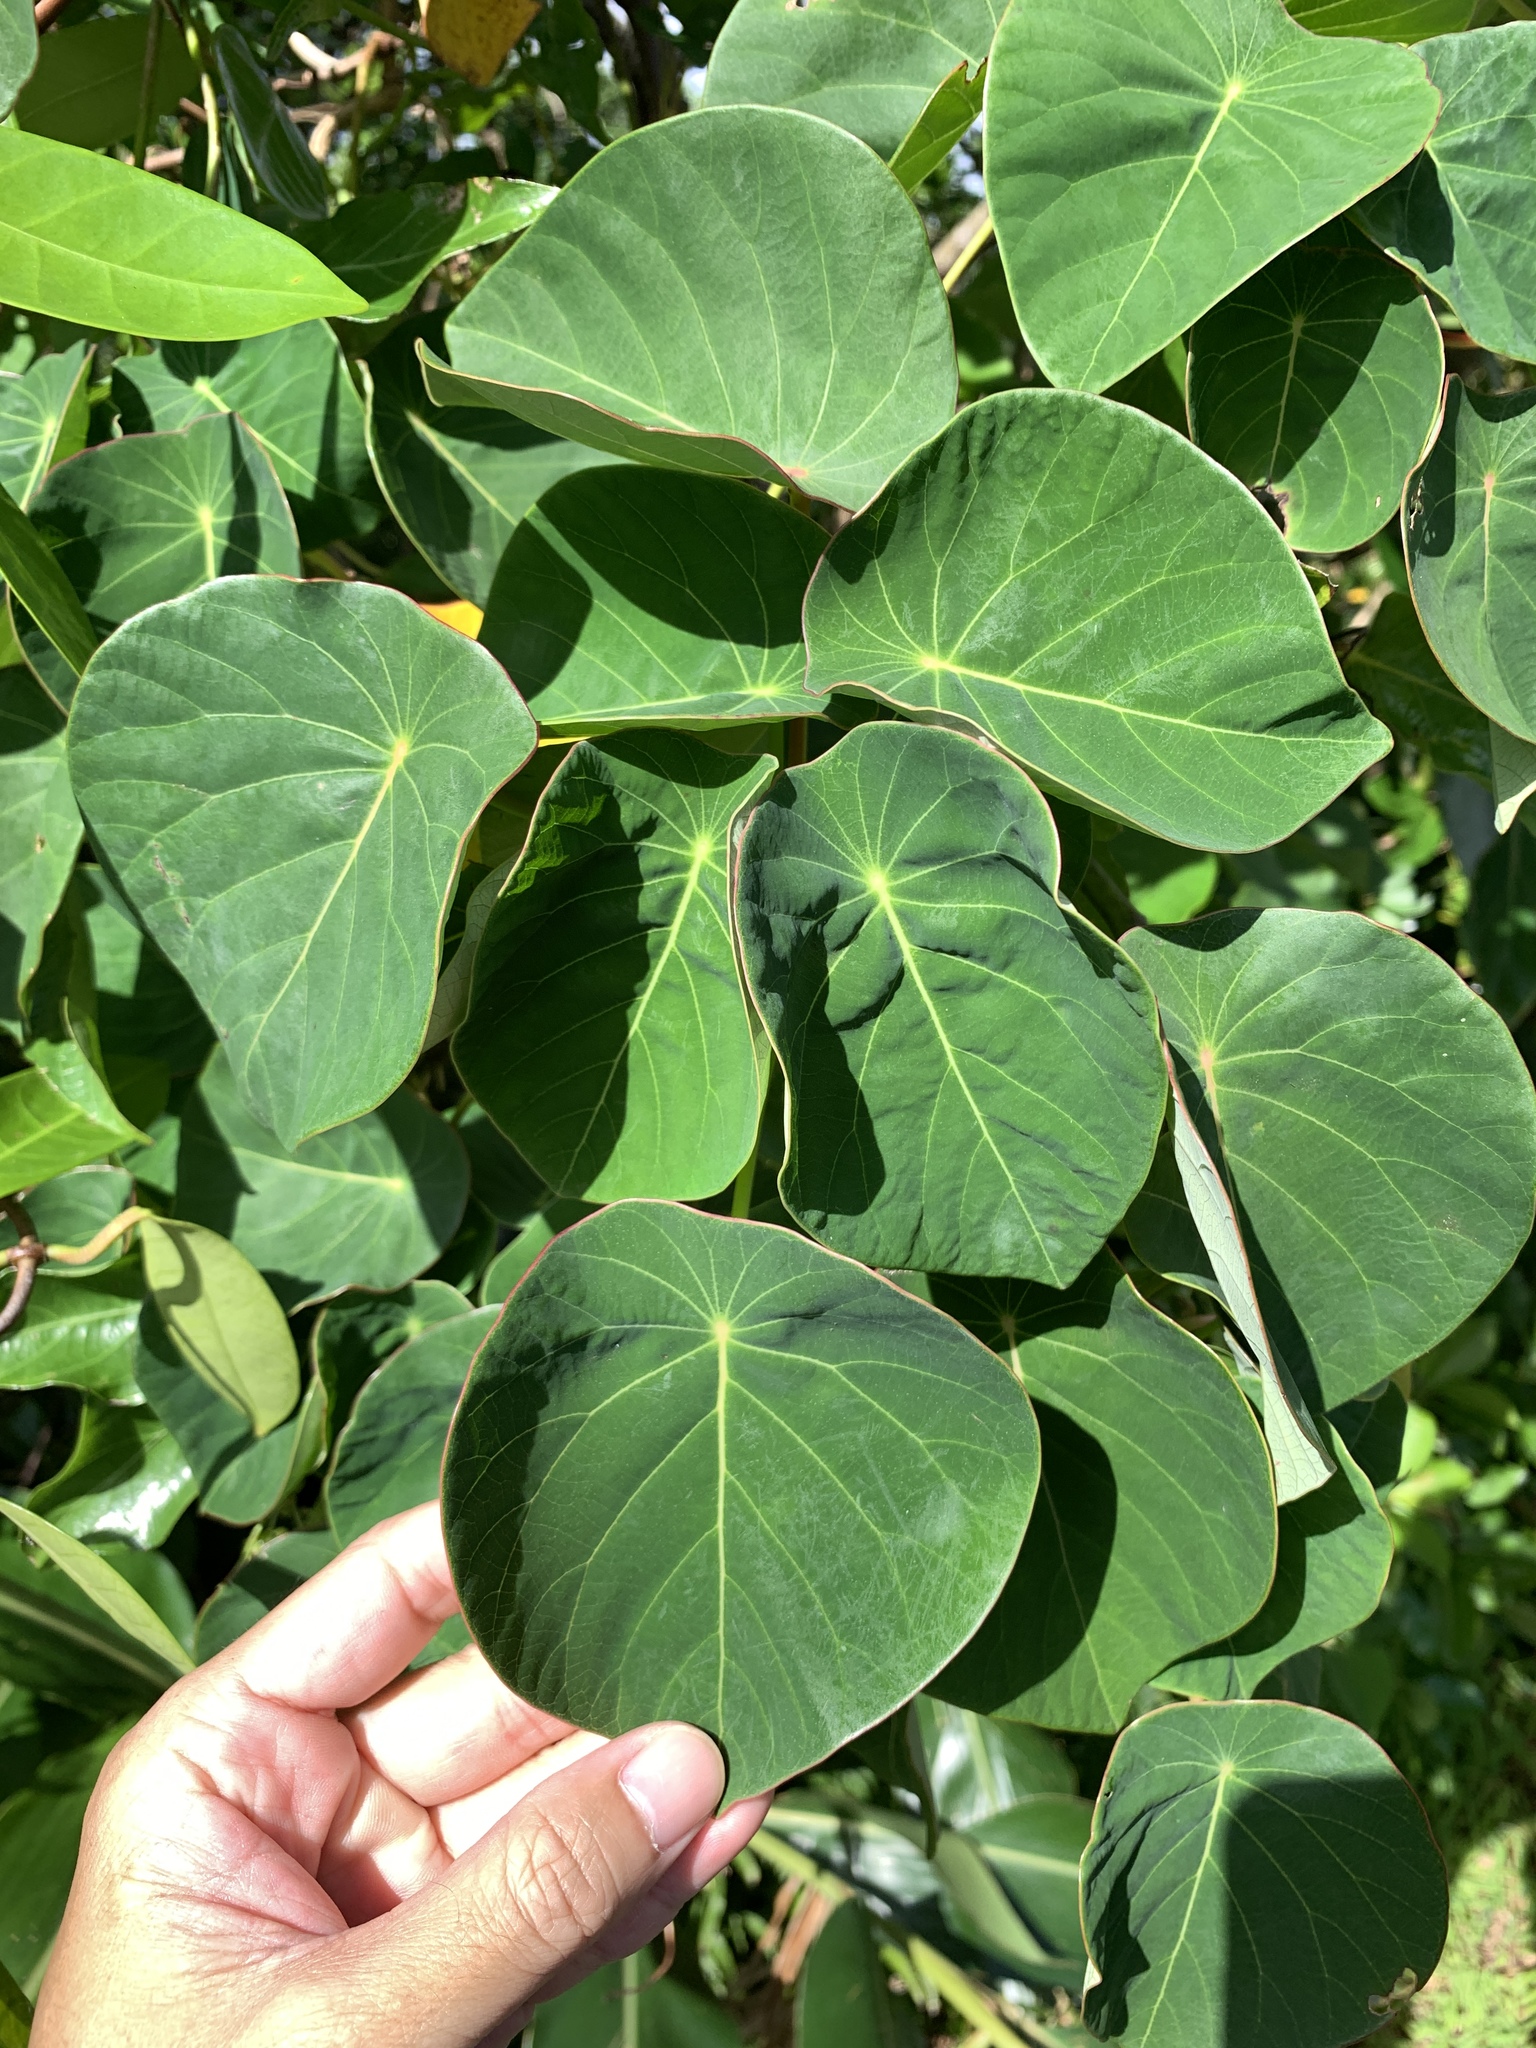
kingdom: Plantae
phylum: Tracheophyta
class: Magnoliopsida
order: Malpighiales
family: Euphorbiaceae
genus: Homalanthus
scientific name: Homalanthus fastuosus
